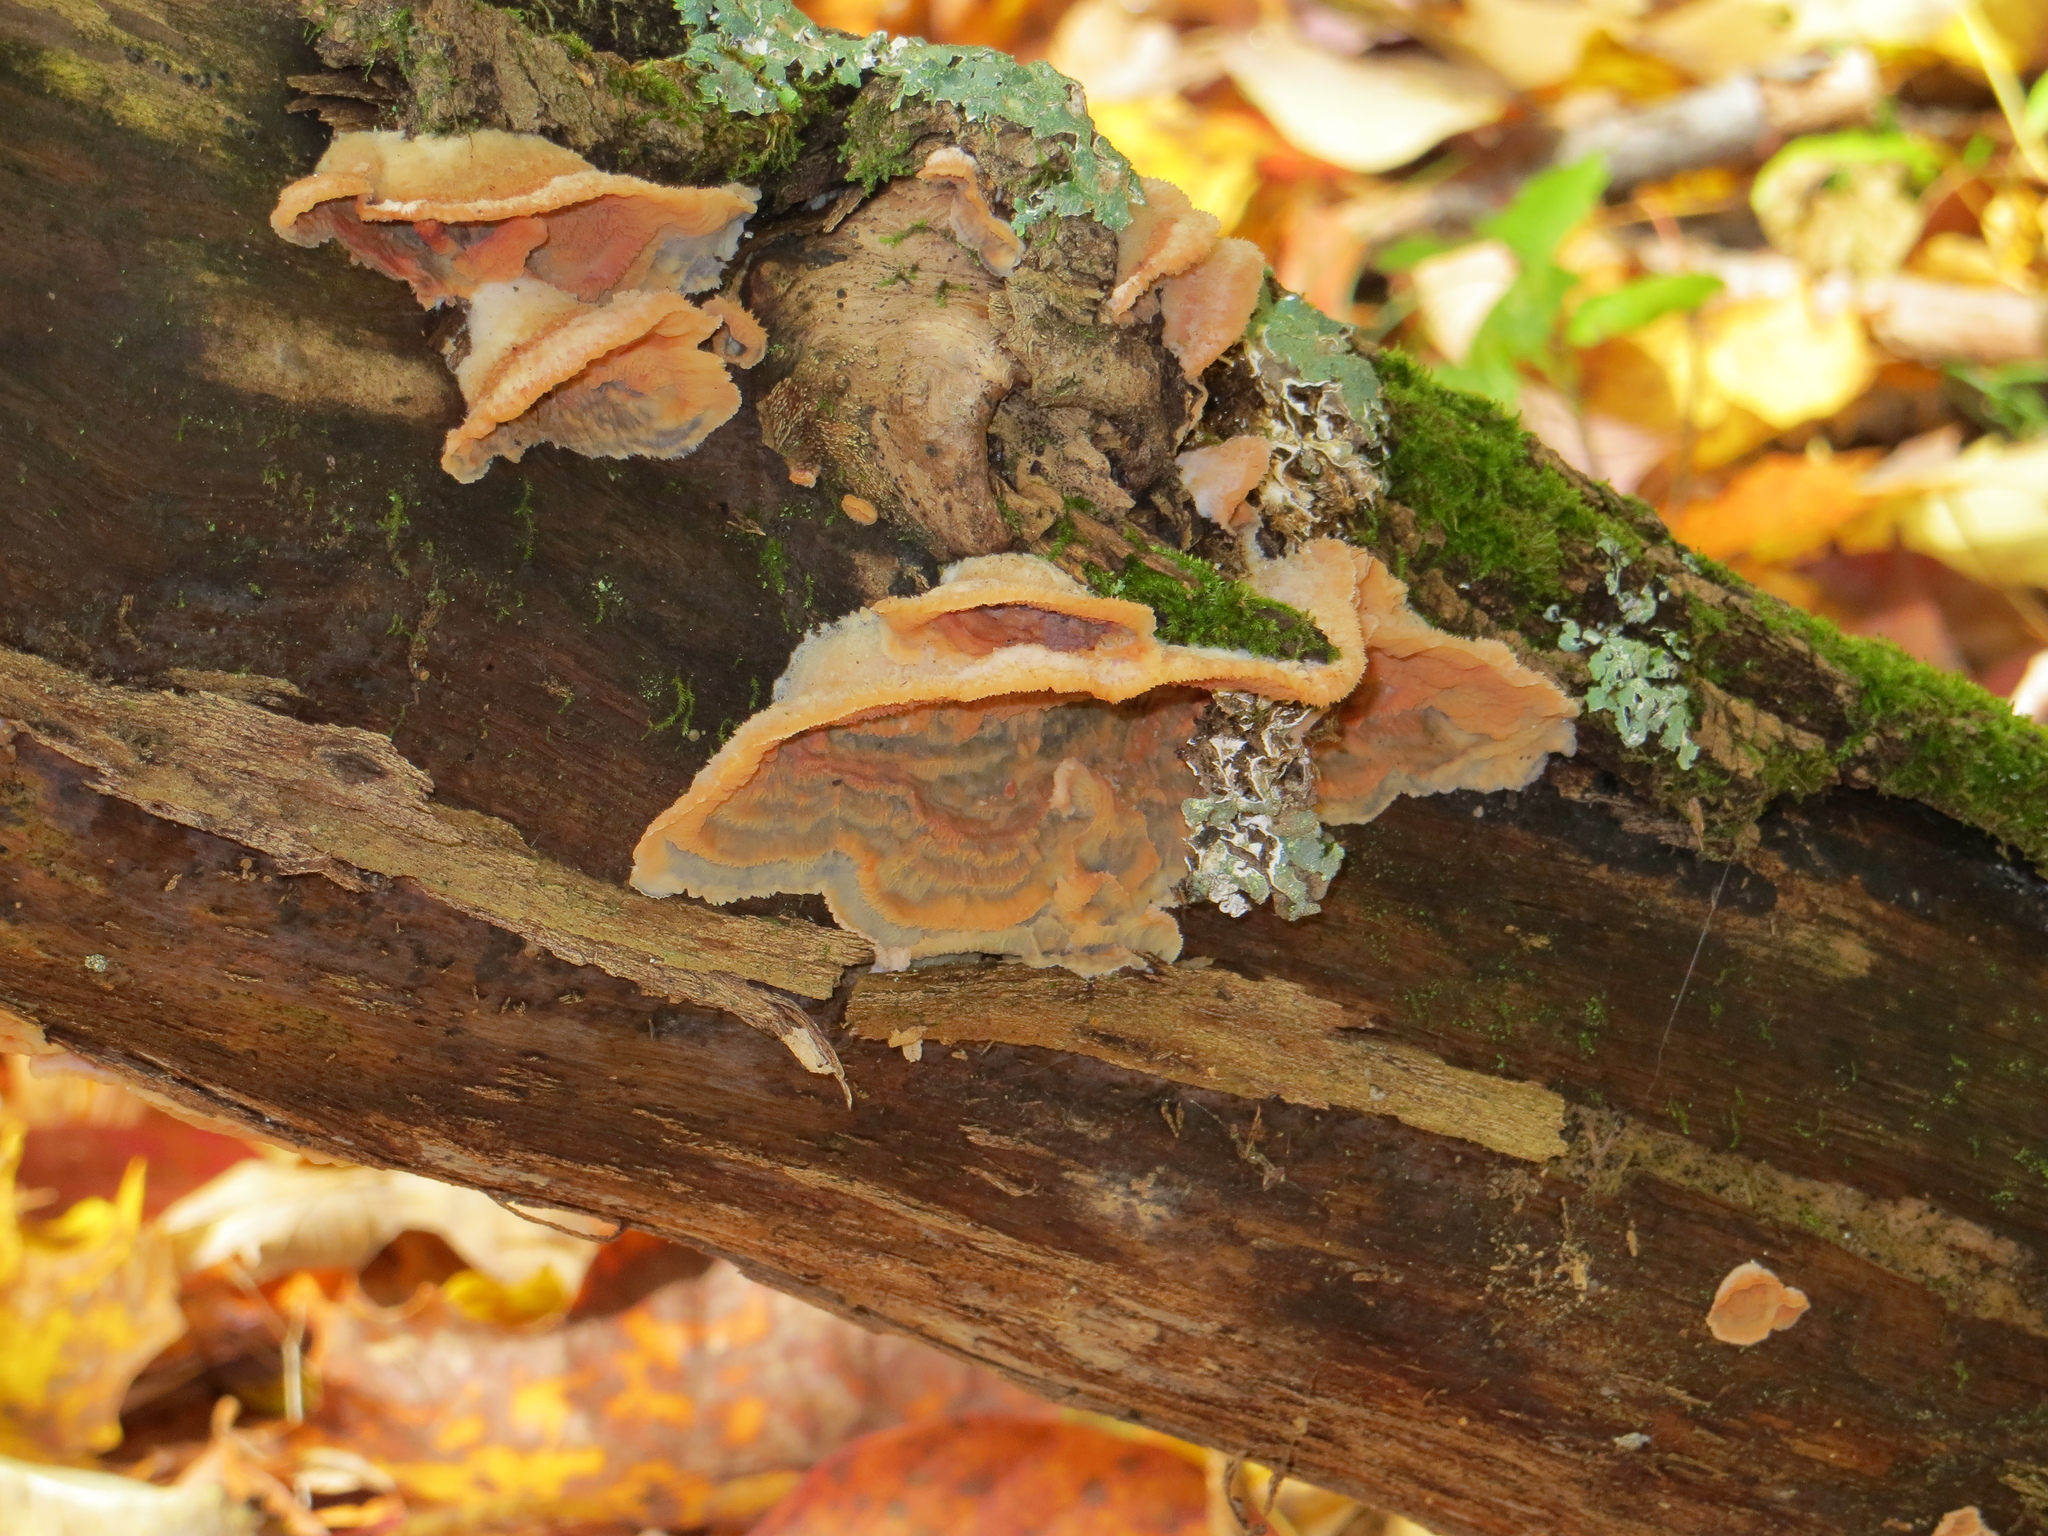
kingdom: Fungi
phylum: Basidiomycota
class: Agaricomycetes
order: Polyporales
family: Meruliaceae
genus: Phlebia
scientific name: Phlebia tremellosa
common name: Jelly rot
